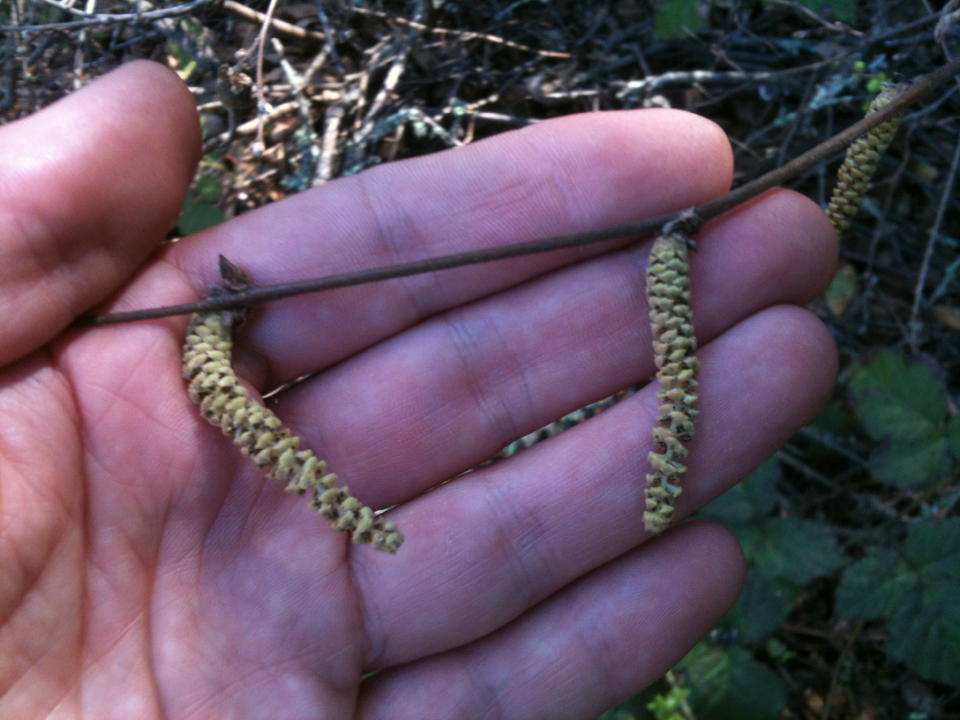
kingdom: Plantae
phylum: Tracheophyta
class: Magnoliopsida
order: Fagales
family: Betulaceae
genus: Corylus
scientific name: Corylus cornuta
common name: Beaked hazel
